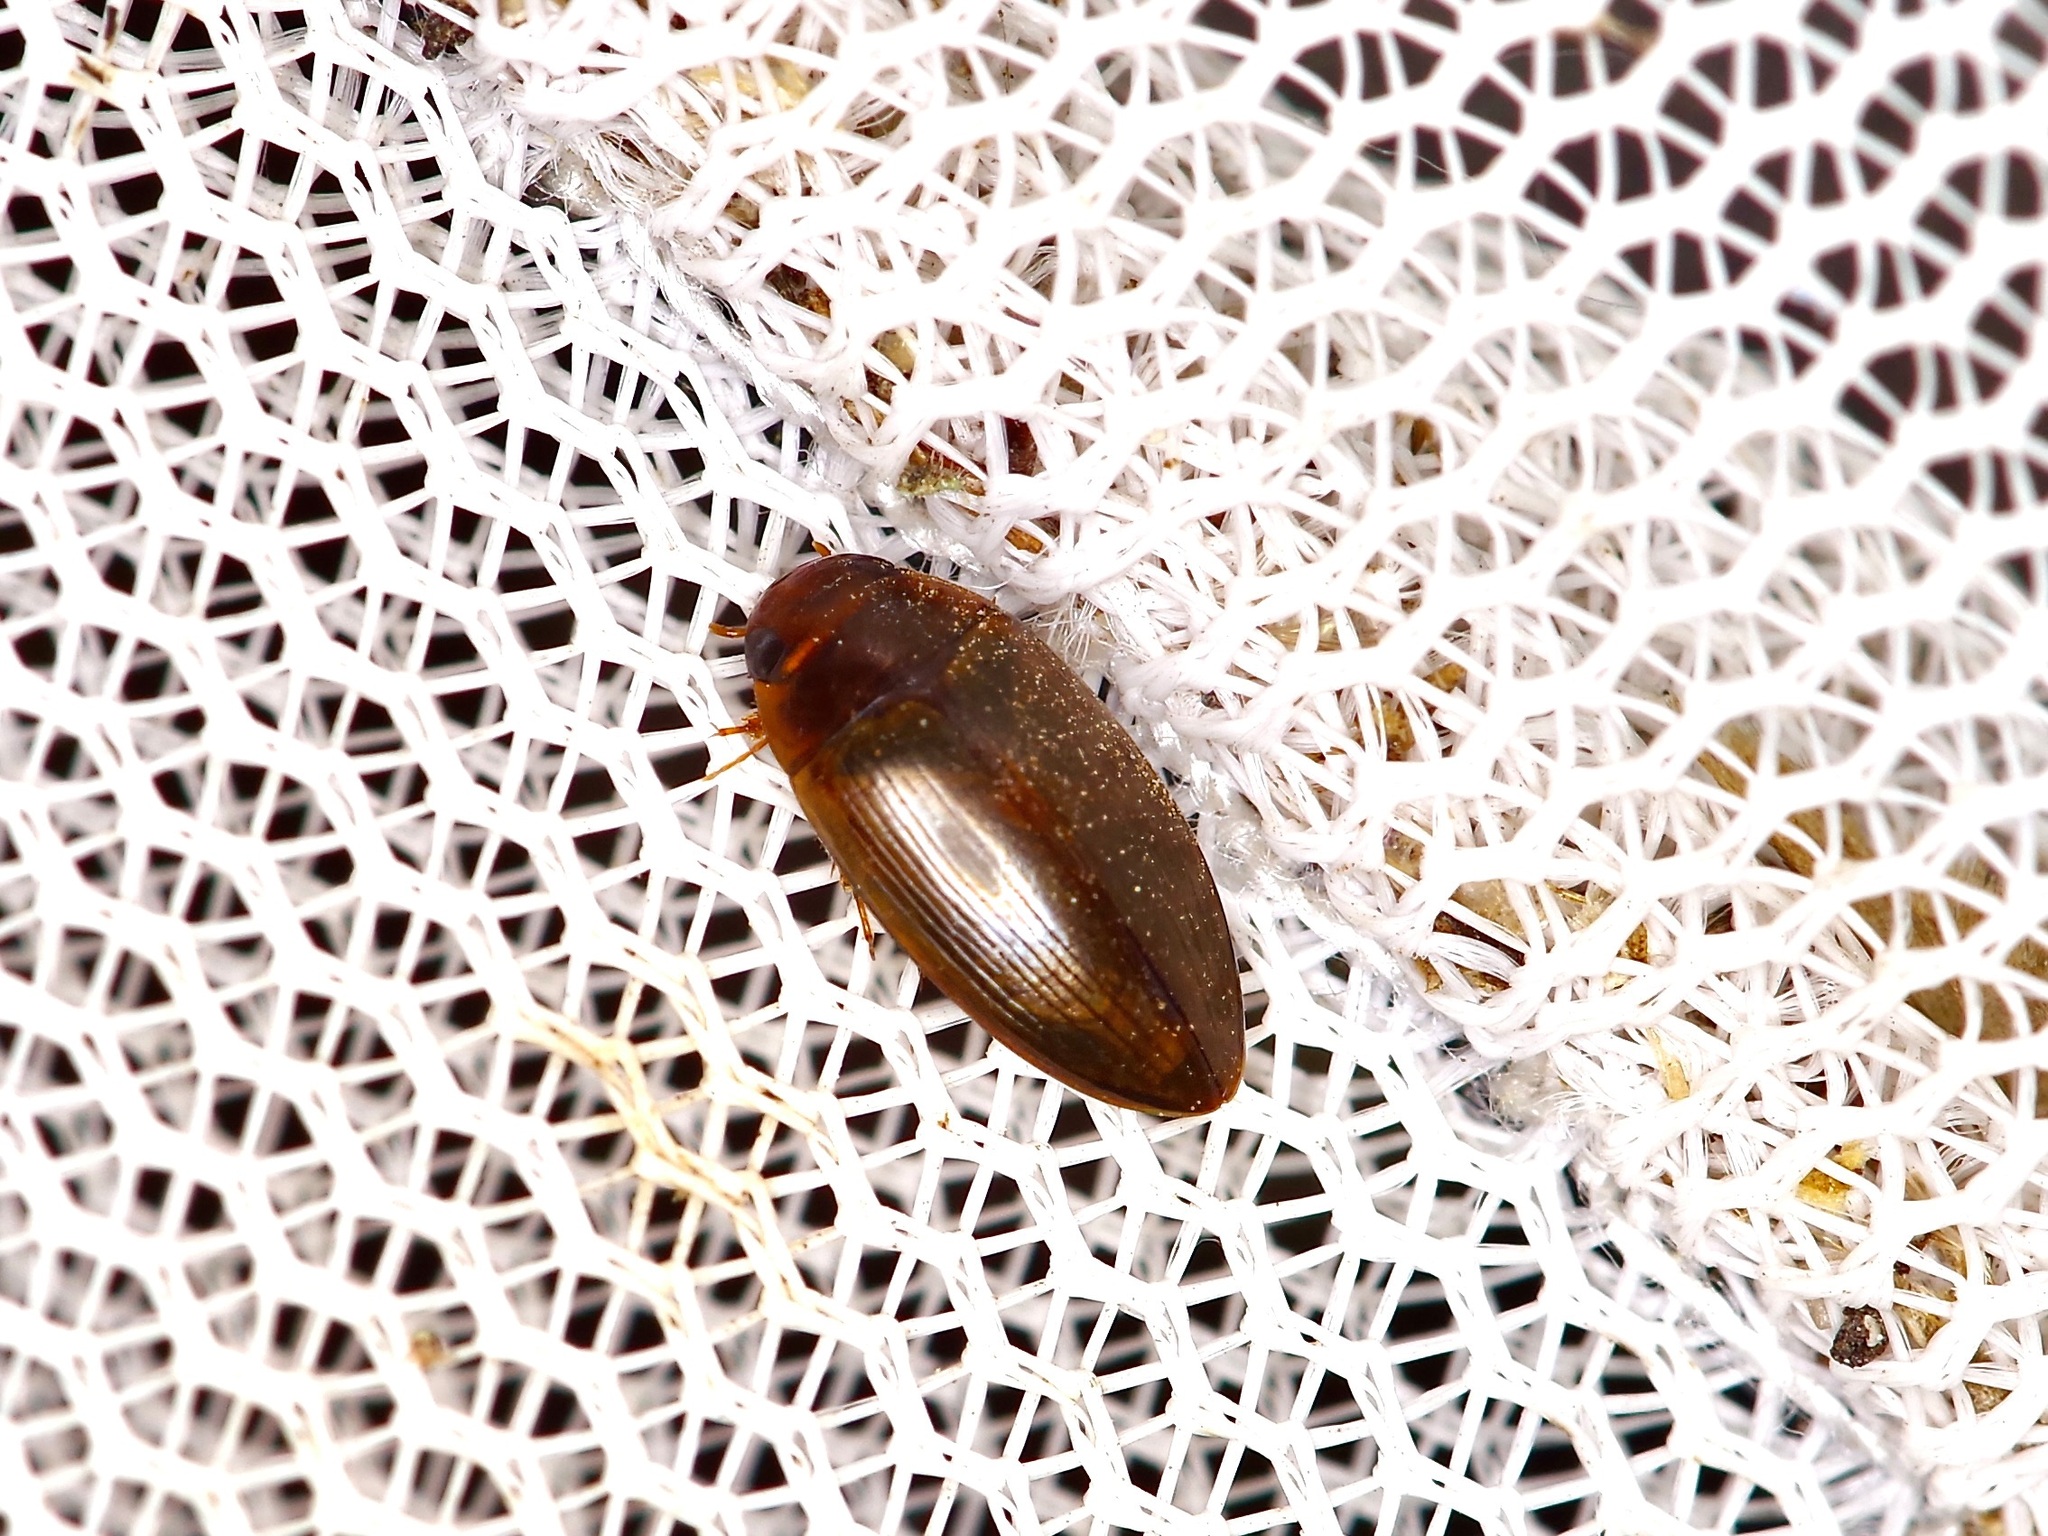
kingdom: Animalia
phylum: Arthropoda
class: Insecta
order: Coleoptera
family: Dytiscidae
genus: Copelatus
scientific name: Copelatus chevrolati
